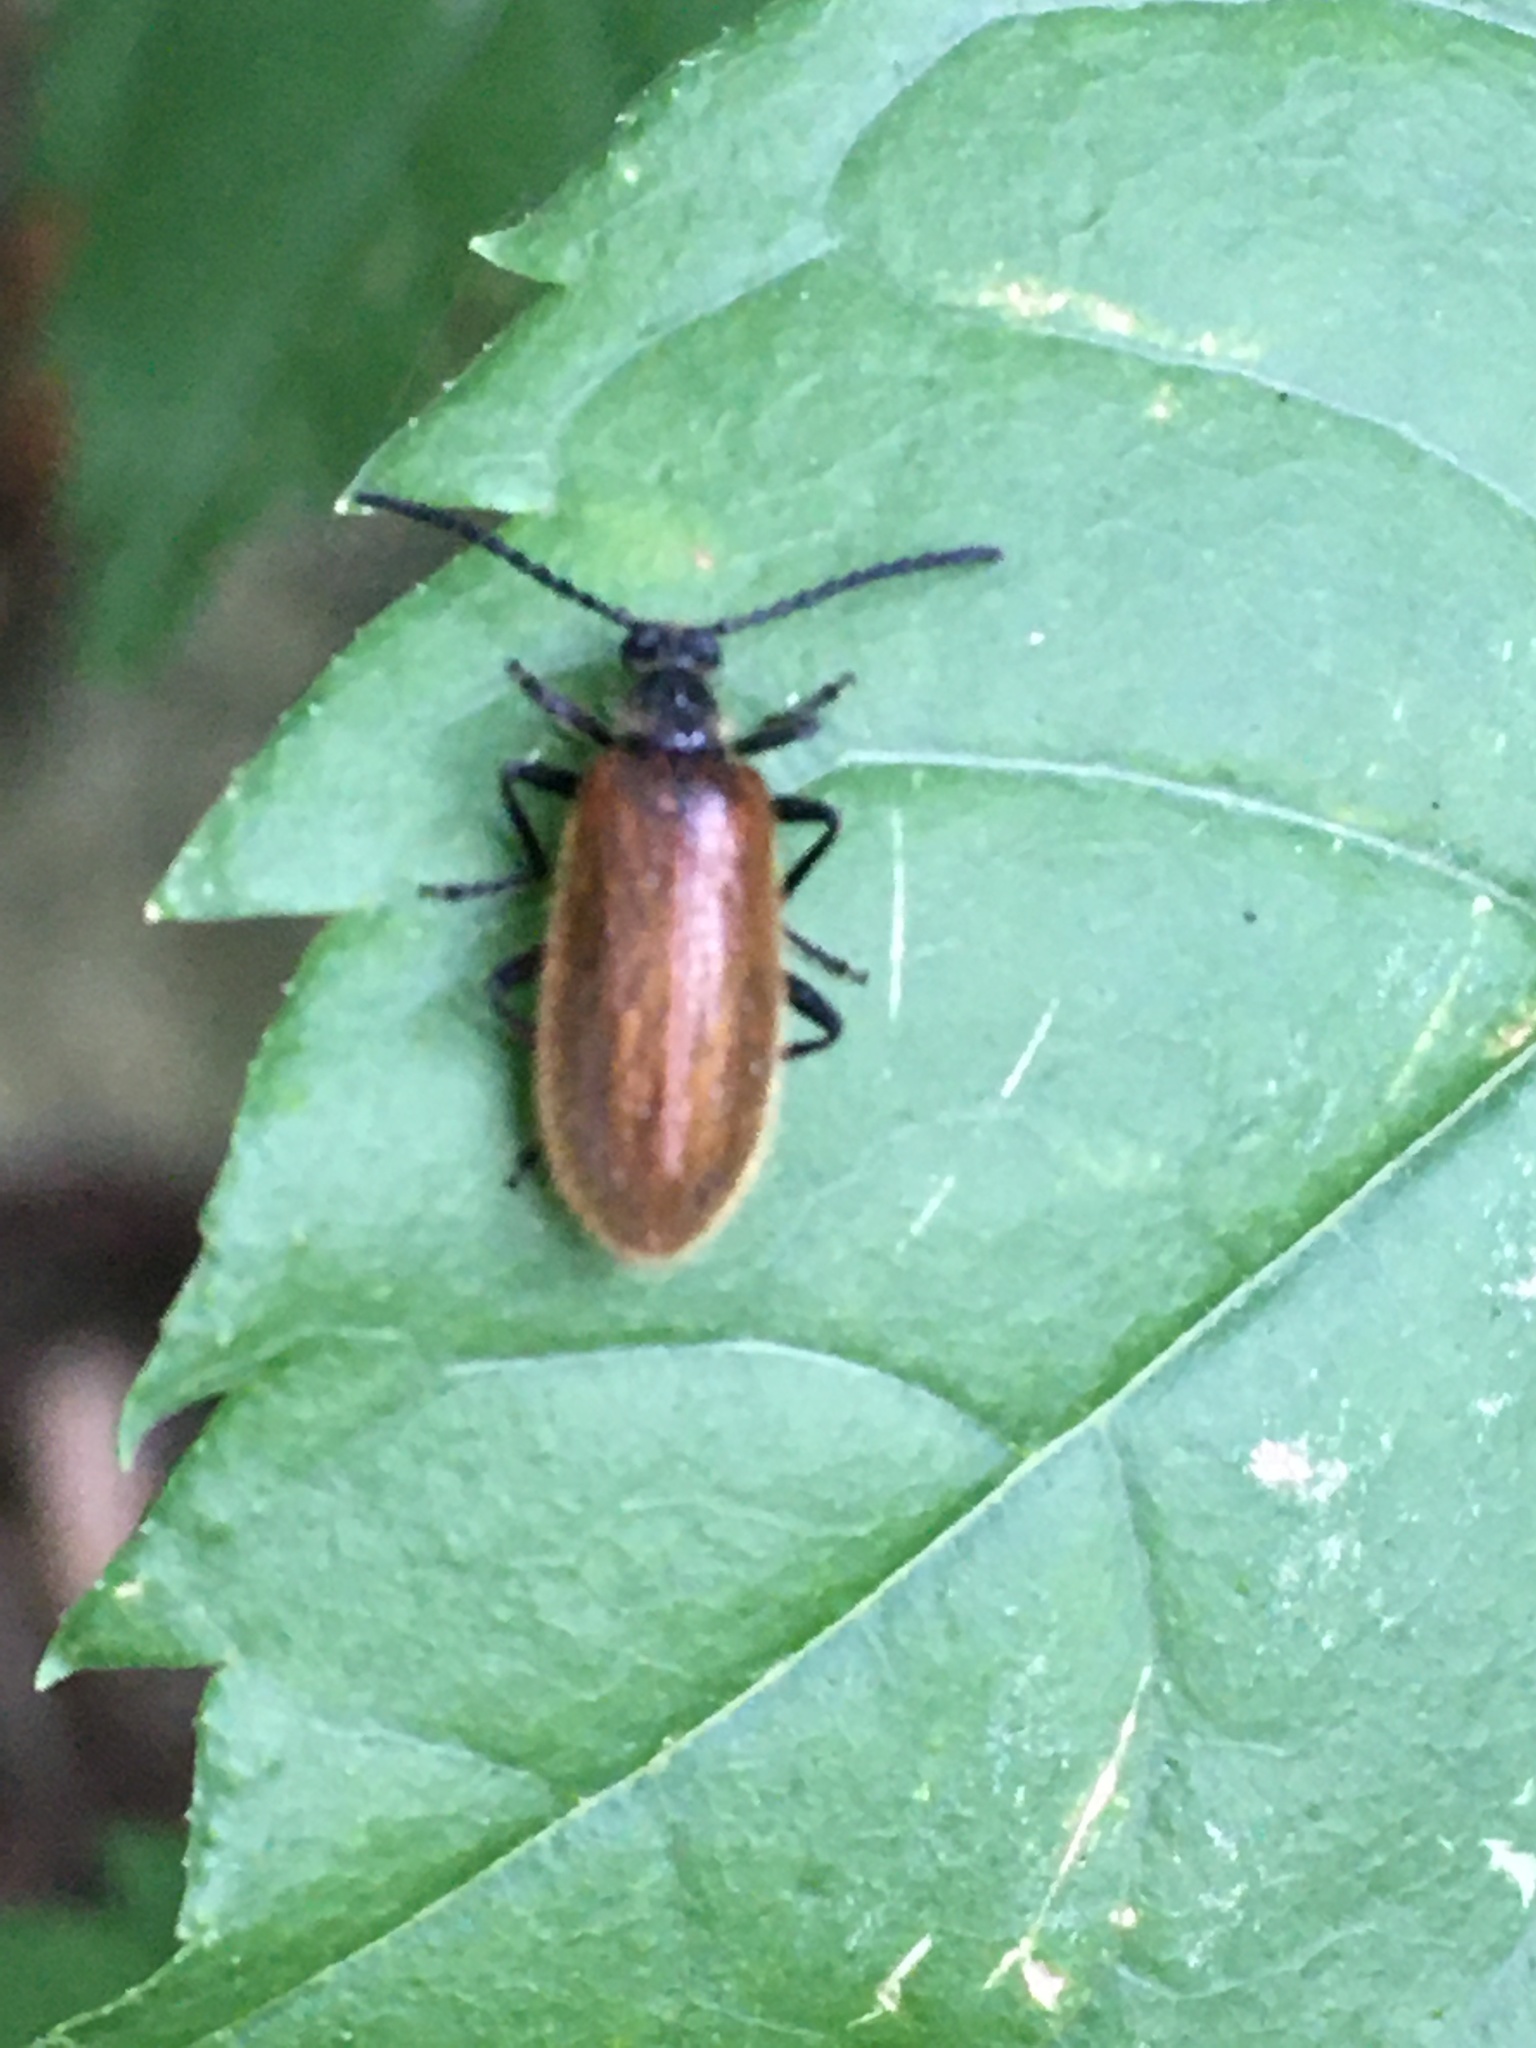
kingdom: Animalia
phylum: Arthropoda
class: Insecta
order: Coleoptera
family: Tenebrionidae
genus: Lagria
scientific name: Lagria hirta
